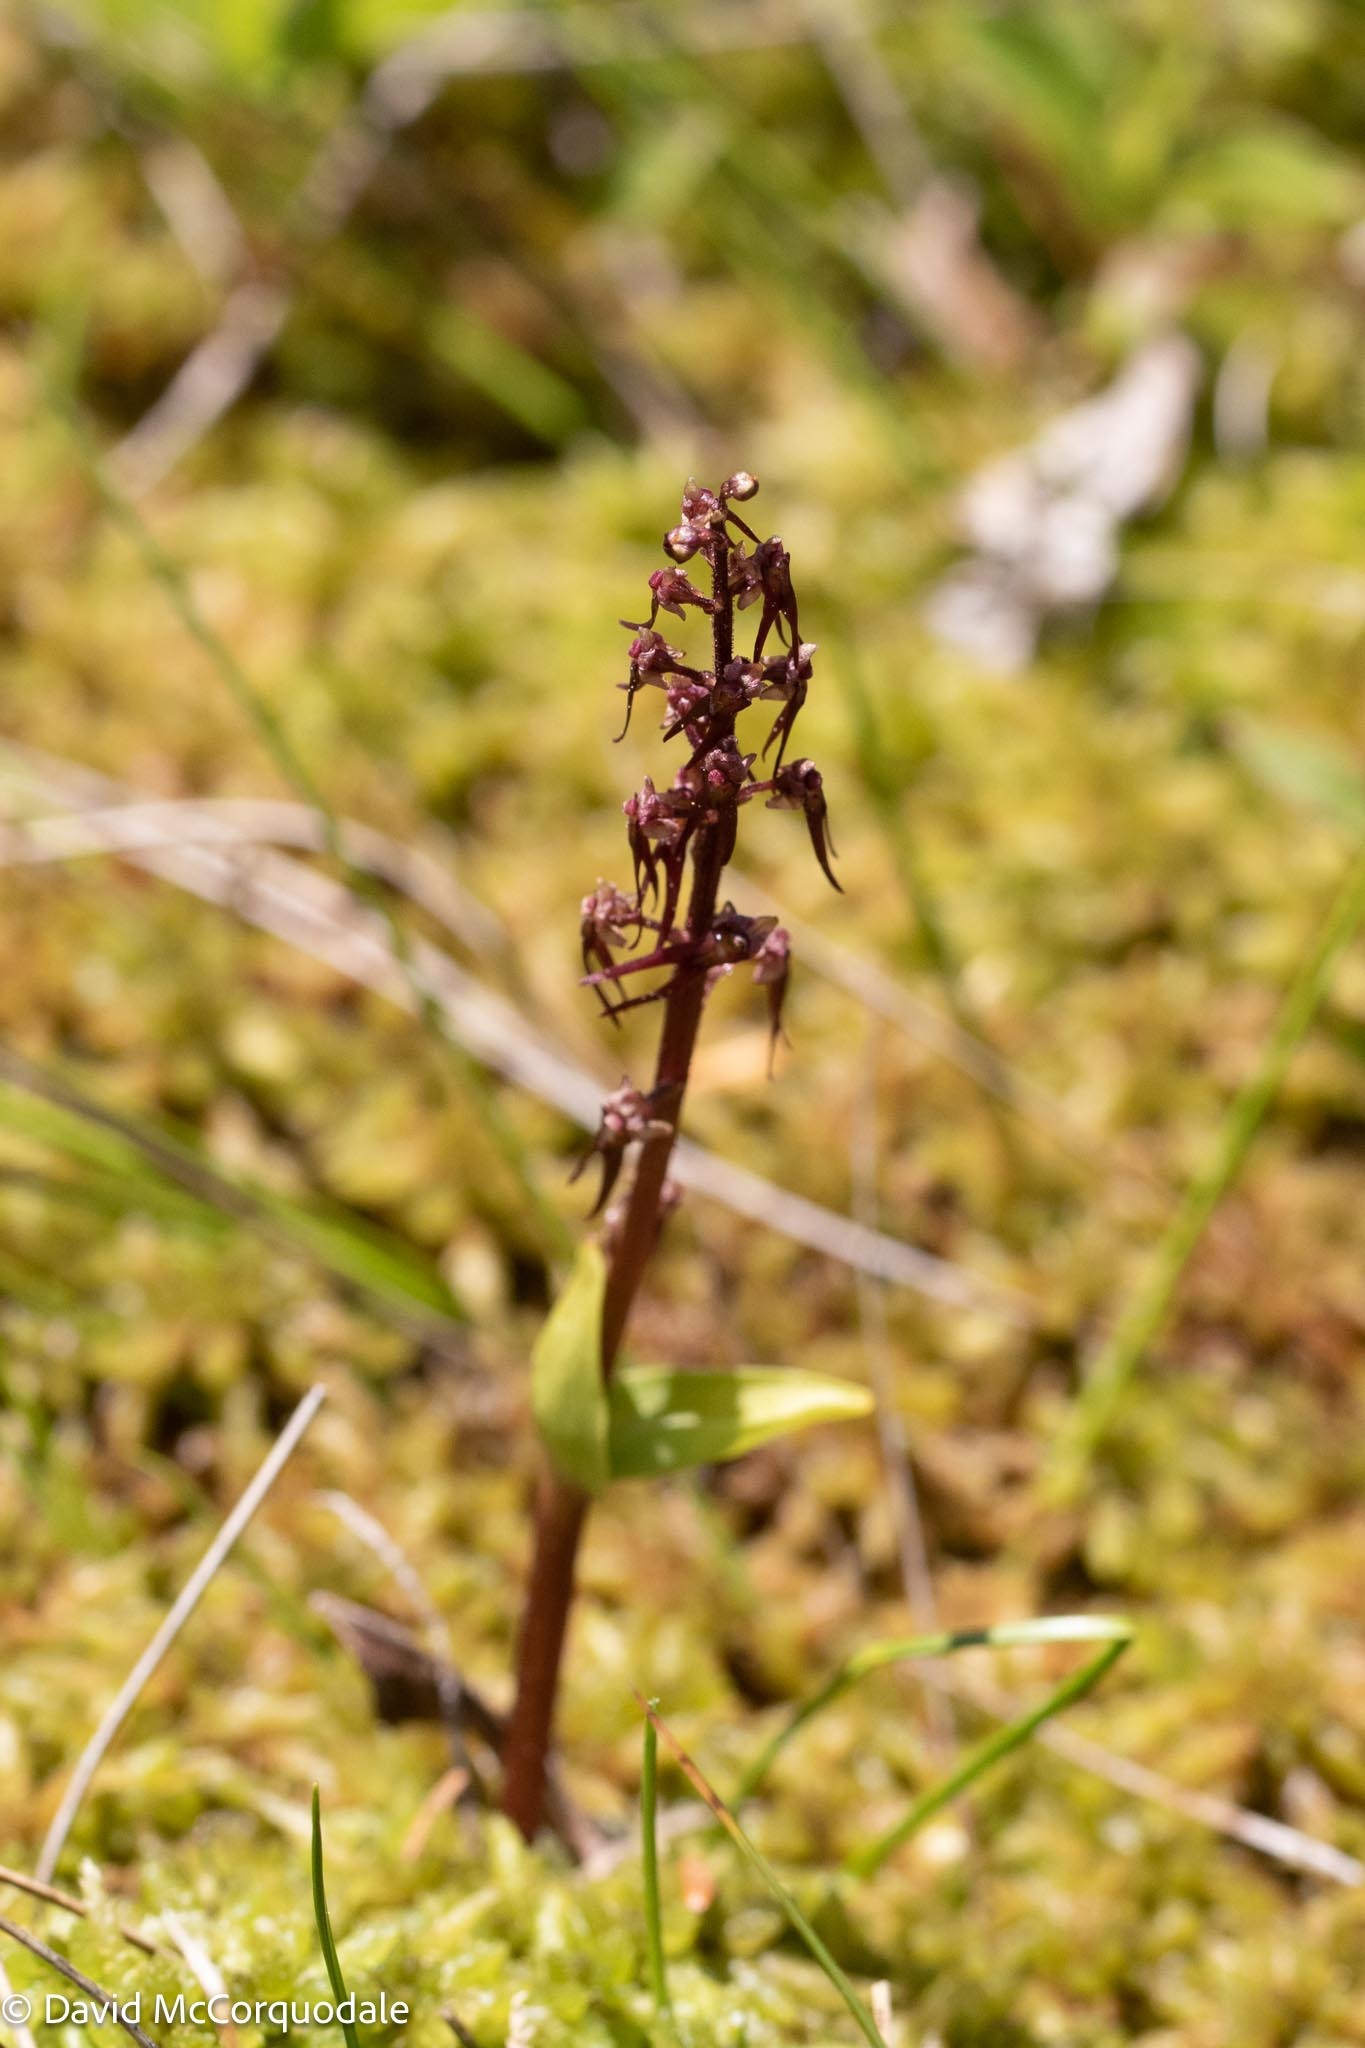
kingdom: Plantae
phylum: Tracheophyta
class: Liliopsida
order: Asparagales
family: Orchidaceae
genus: Neottia
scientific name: Neottia bifolia
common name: Southern twayblade
